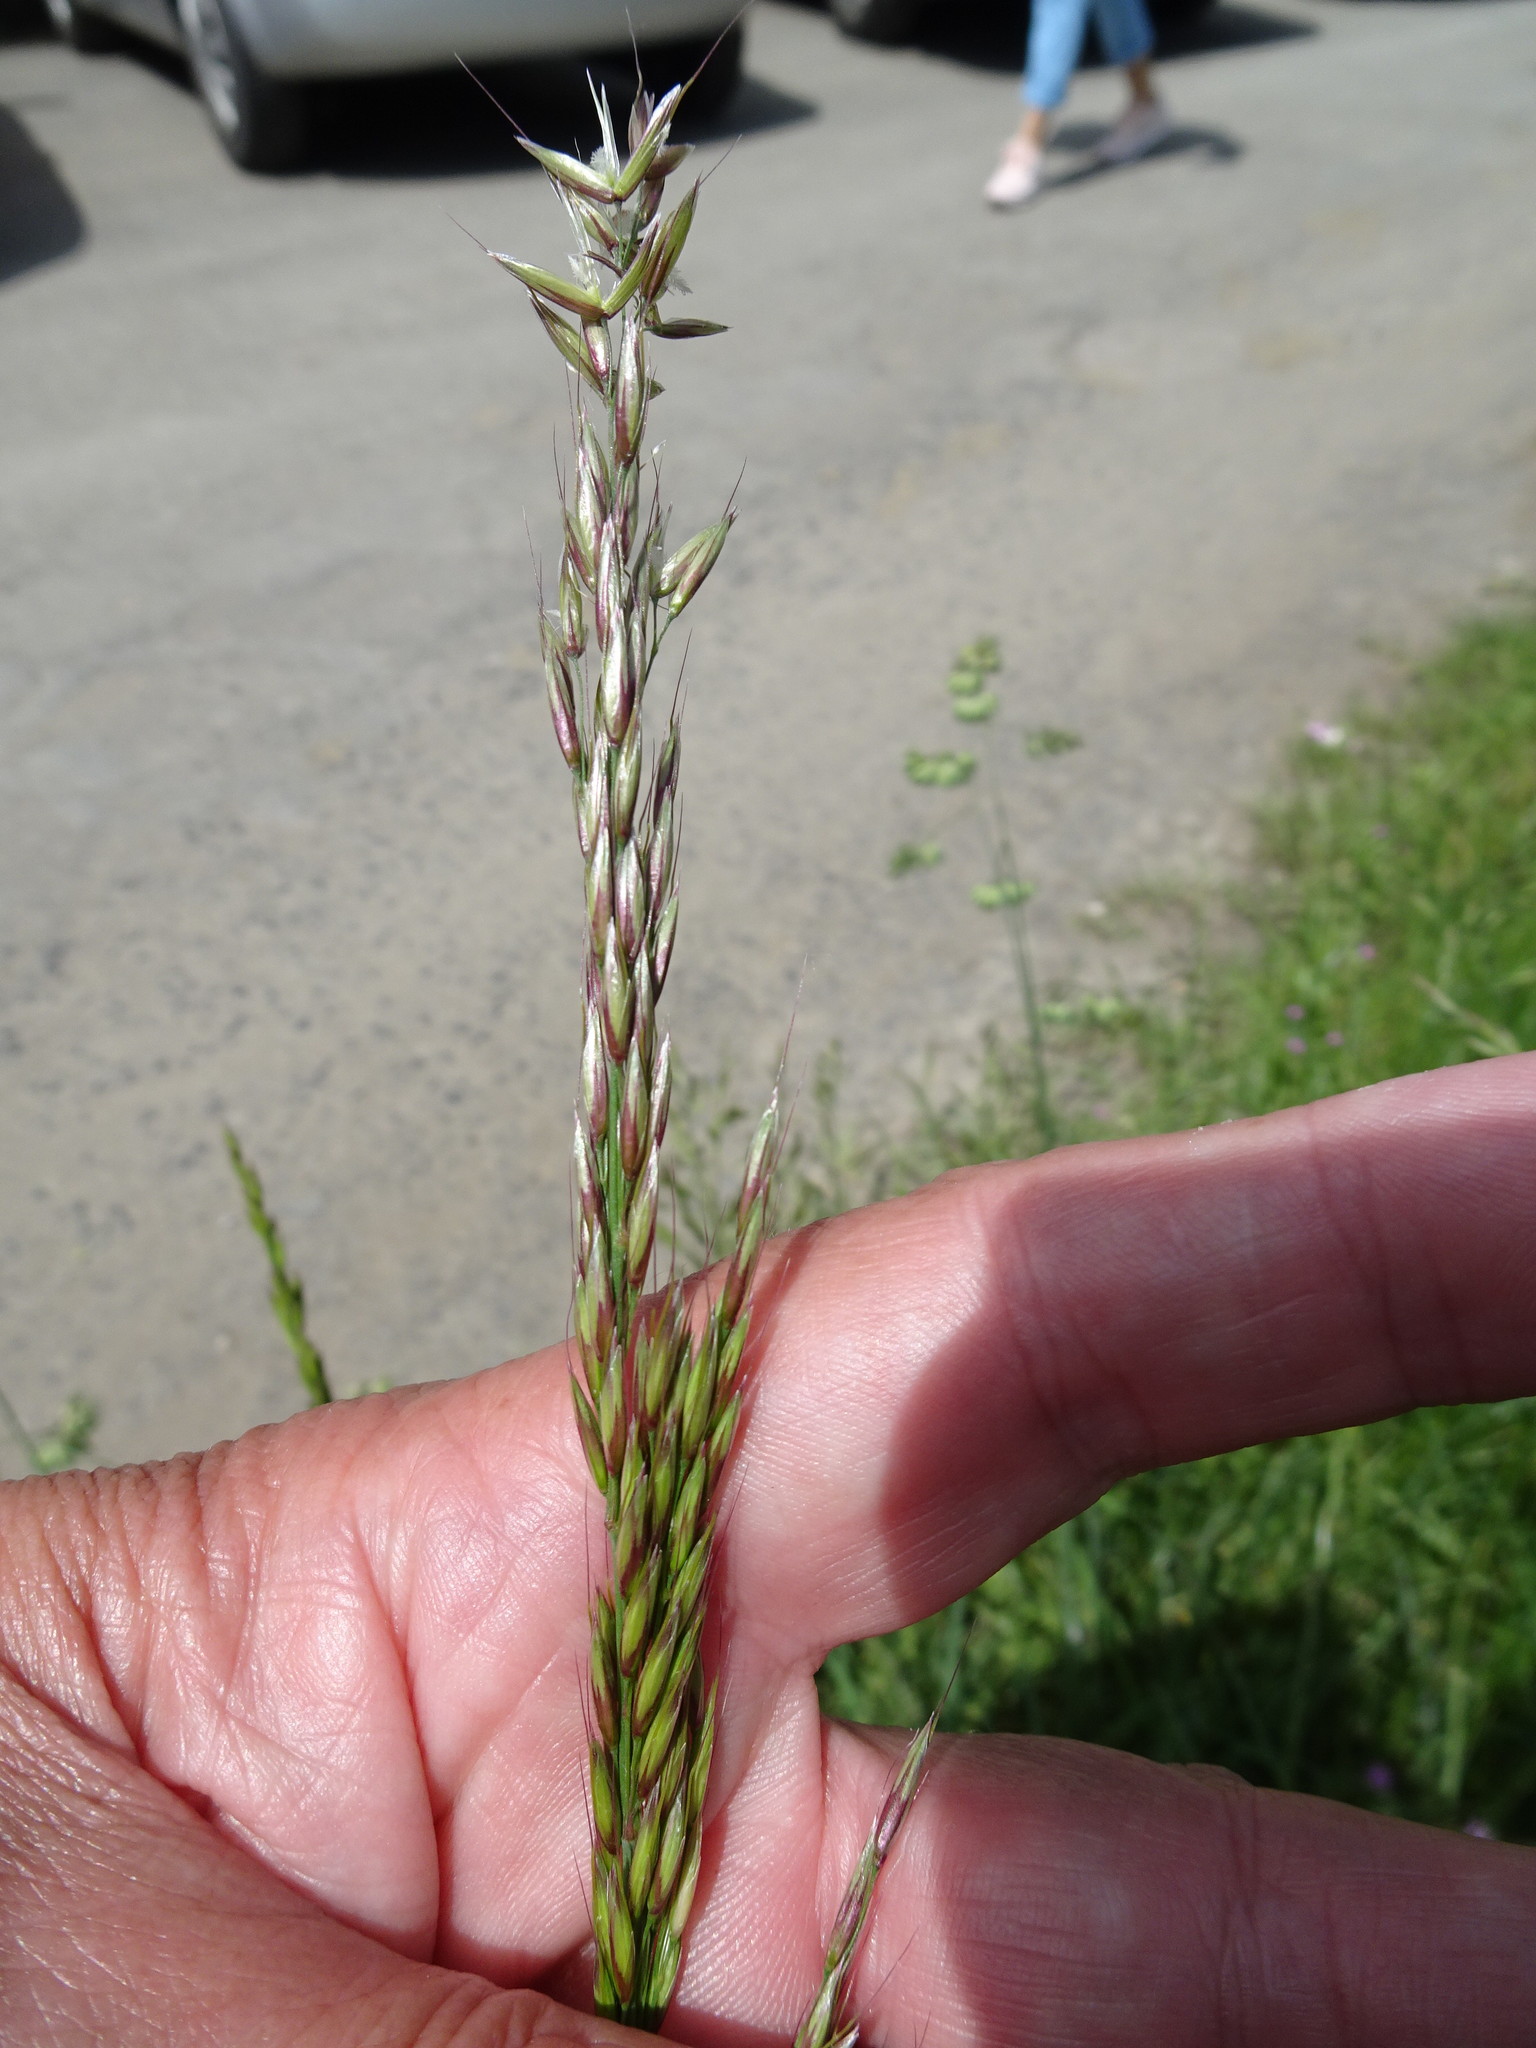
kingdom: Plantae
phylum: Tracheophyta
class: Liliopsida
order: Poales
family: Poaceae
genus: Arrhenatherum
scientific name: Arrhenatherum elatius
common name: Tall oatgrass
